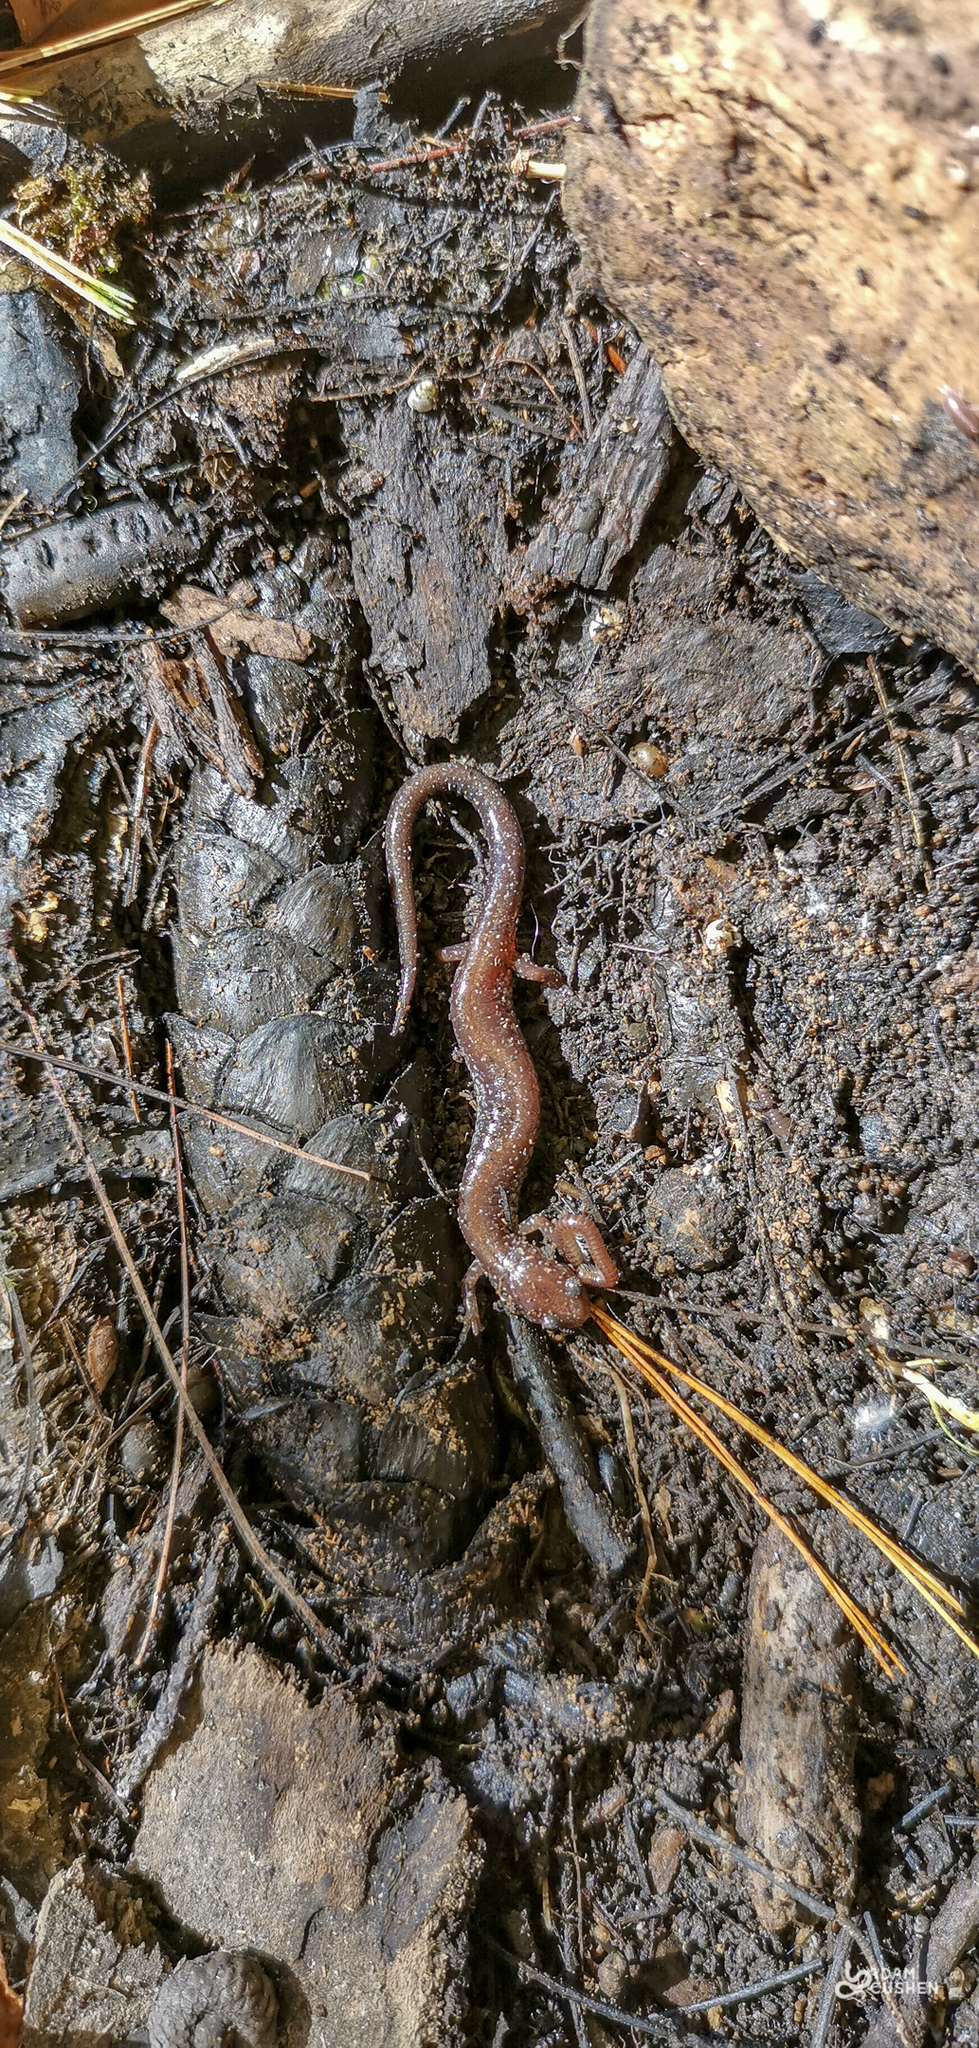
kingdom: Animalia
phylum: Chordata
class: Amphibia
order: Caudata
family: Plethodontidae
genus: Plethodon
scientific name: Plethodon cinereus
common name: Redback salamander
